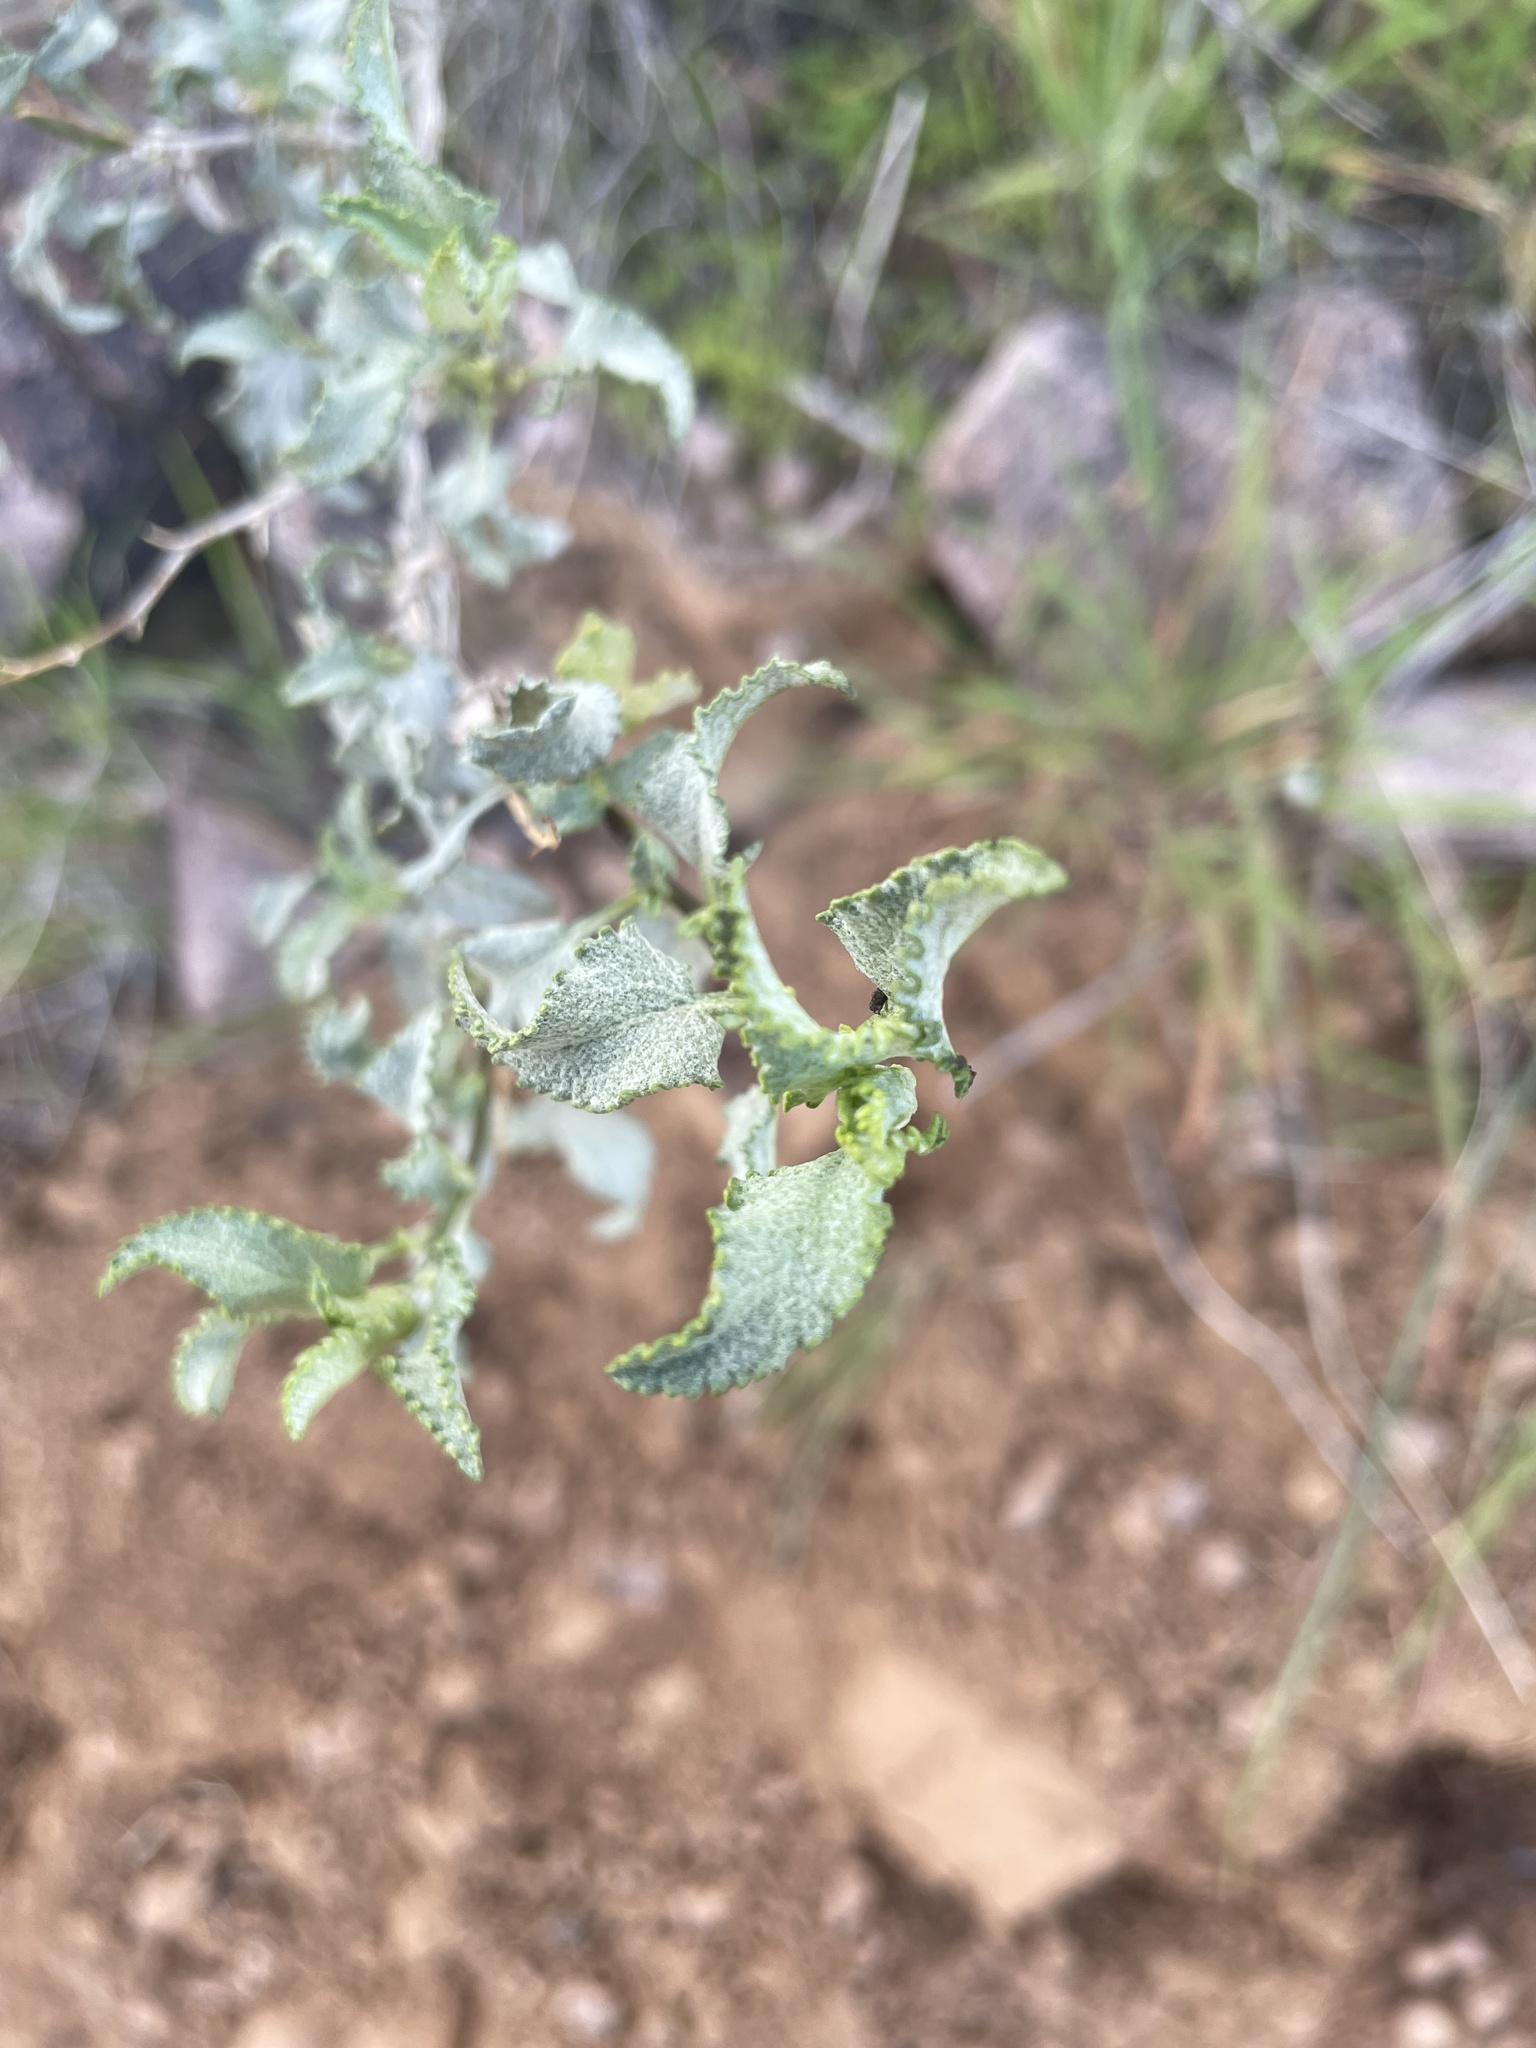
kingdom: Plantae
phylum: Tracheophyta
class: Magnoliopsida
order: Asterales
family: Asteraceae
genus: Ambrosia
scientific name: Ambrosia deltoidea
